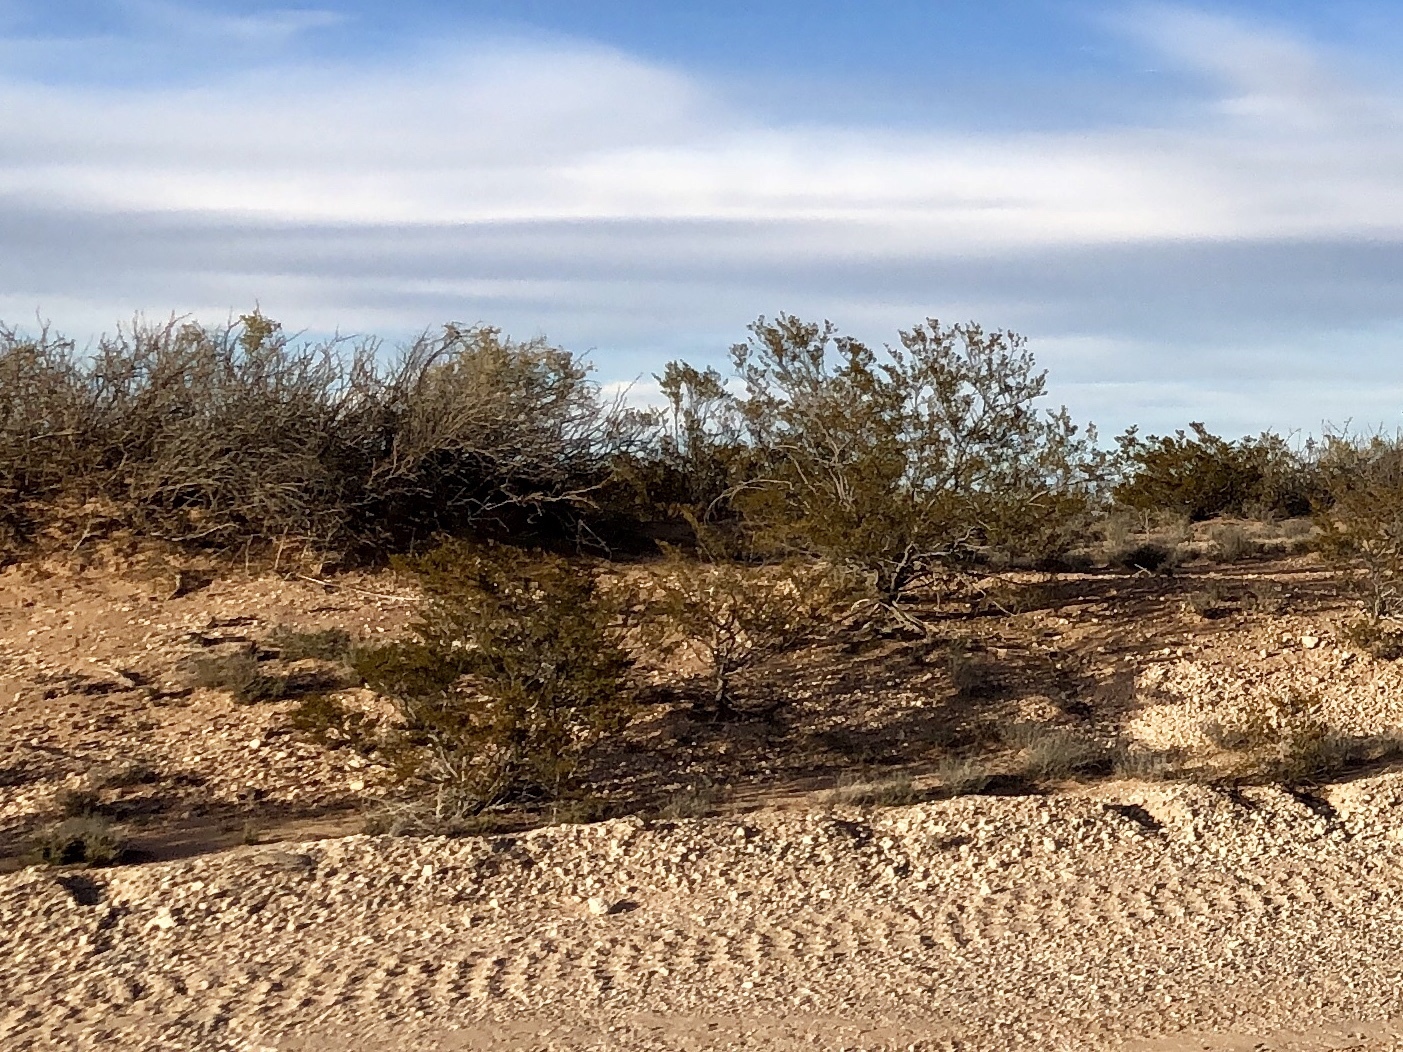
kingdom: Plantae
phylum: Tracheophyta
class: Magnoliopsida
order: Zygophyllales
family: Zygophyllaceae
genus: Larrea
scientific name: Larrea tridentata
